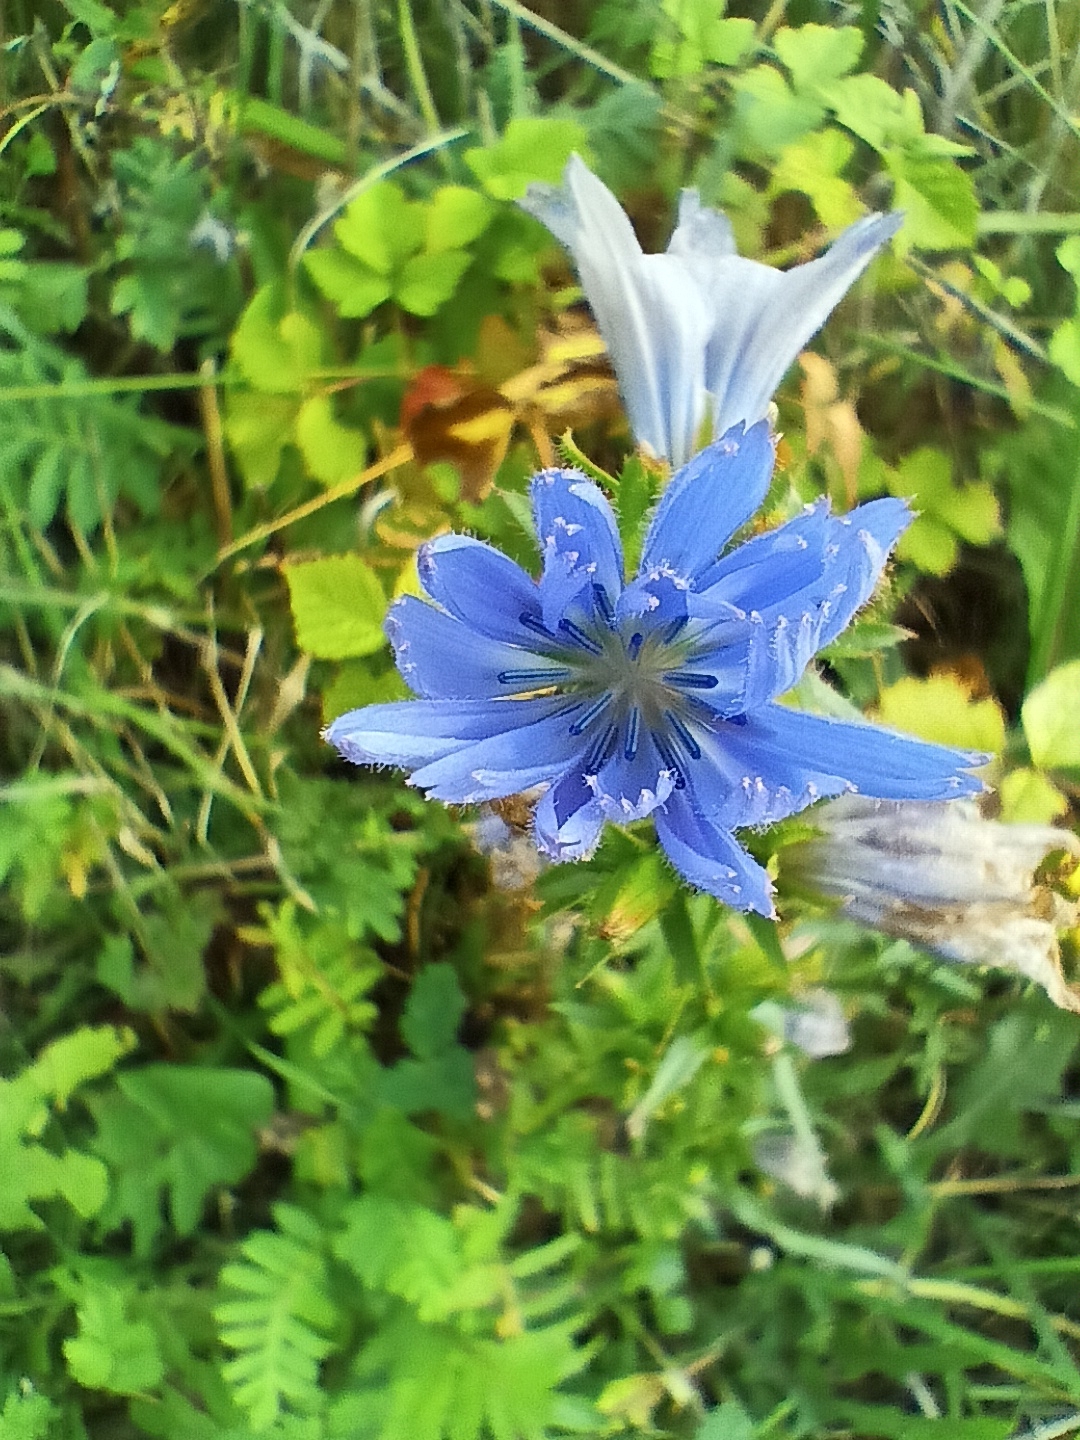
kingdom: Plantae
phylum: Tracheophyta
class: Magnoliopsida
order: Asterales
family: Asteraceae
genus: Cichorium
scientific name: Cichorium intybus
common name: Chicory
